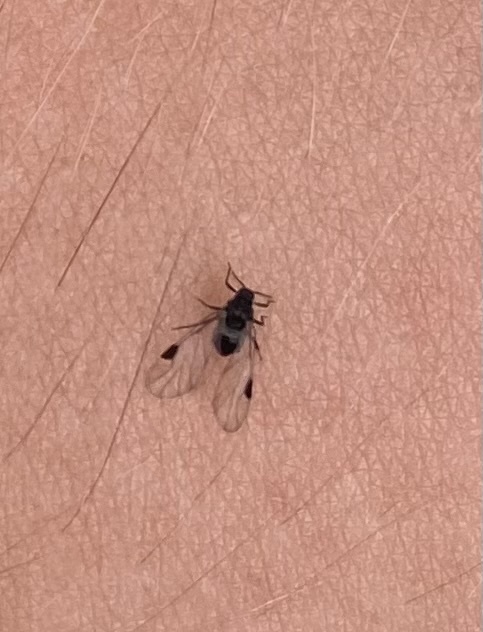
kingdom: Animalia
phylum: Arthropoda
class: Insecta
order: Hemiptera
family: Aphididae
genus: Anoecia
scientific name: Anoecia
